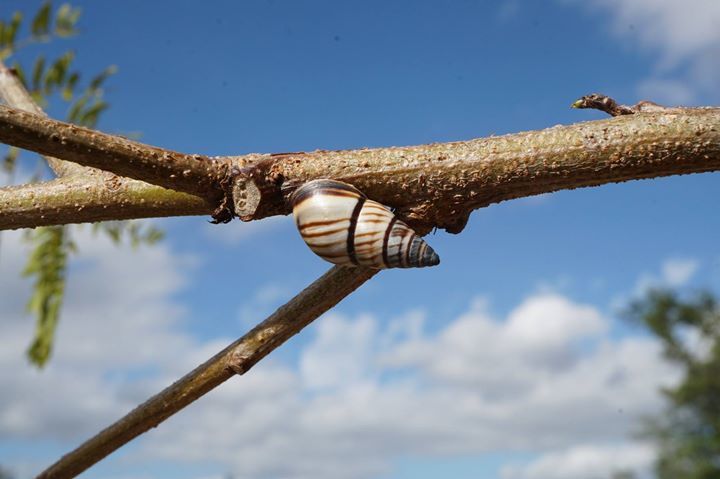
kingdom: Animalia
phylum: Mollusca
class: Gastropoda
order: Stylommatophora
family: Bulimulidae
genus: Drymaeus
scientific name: Drymaeus
